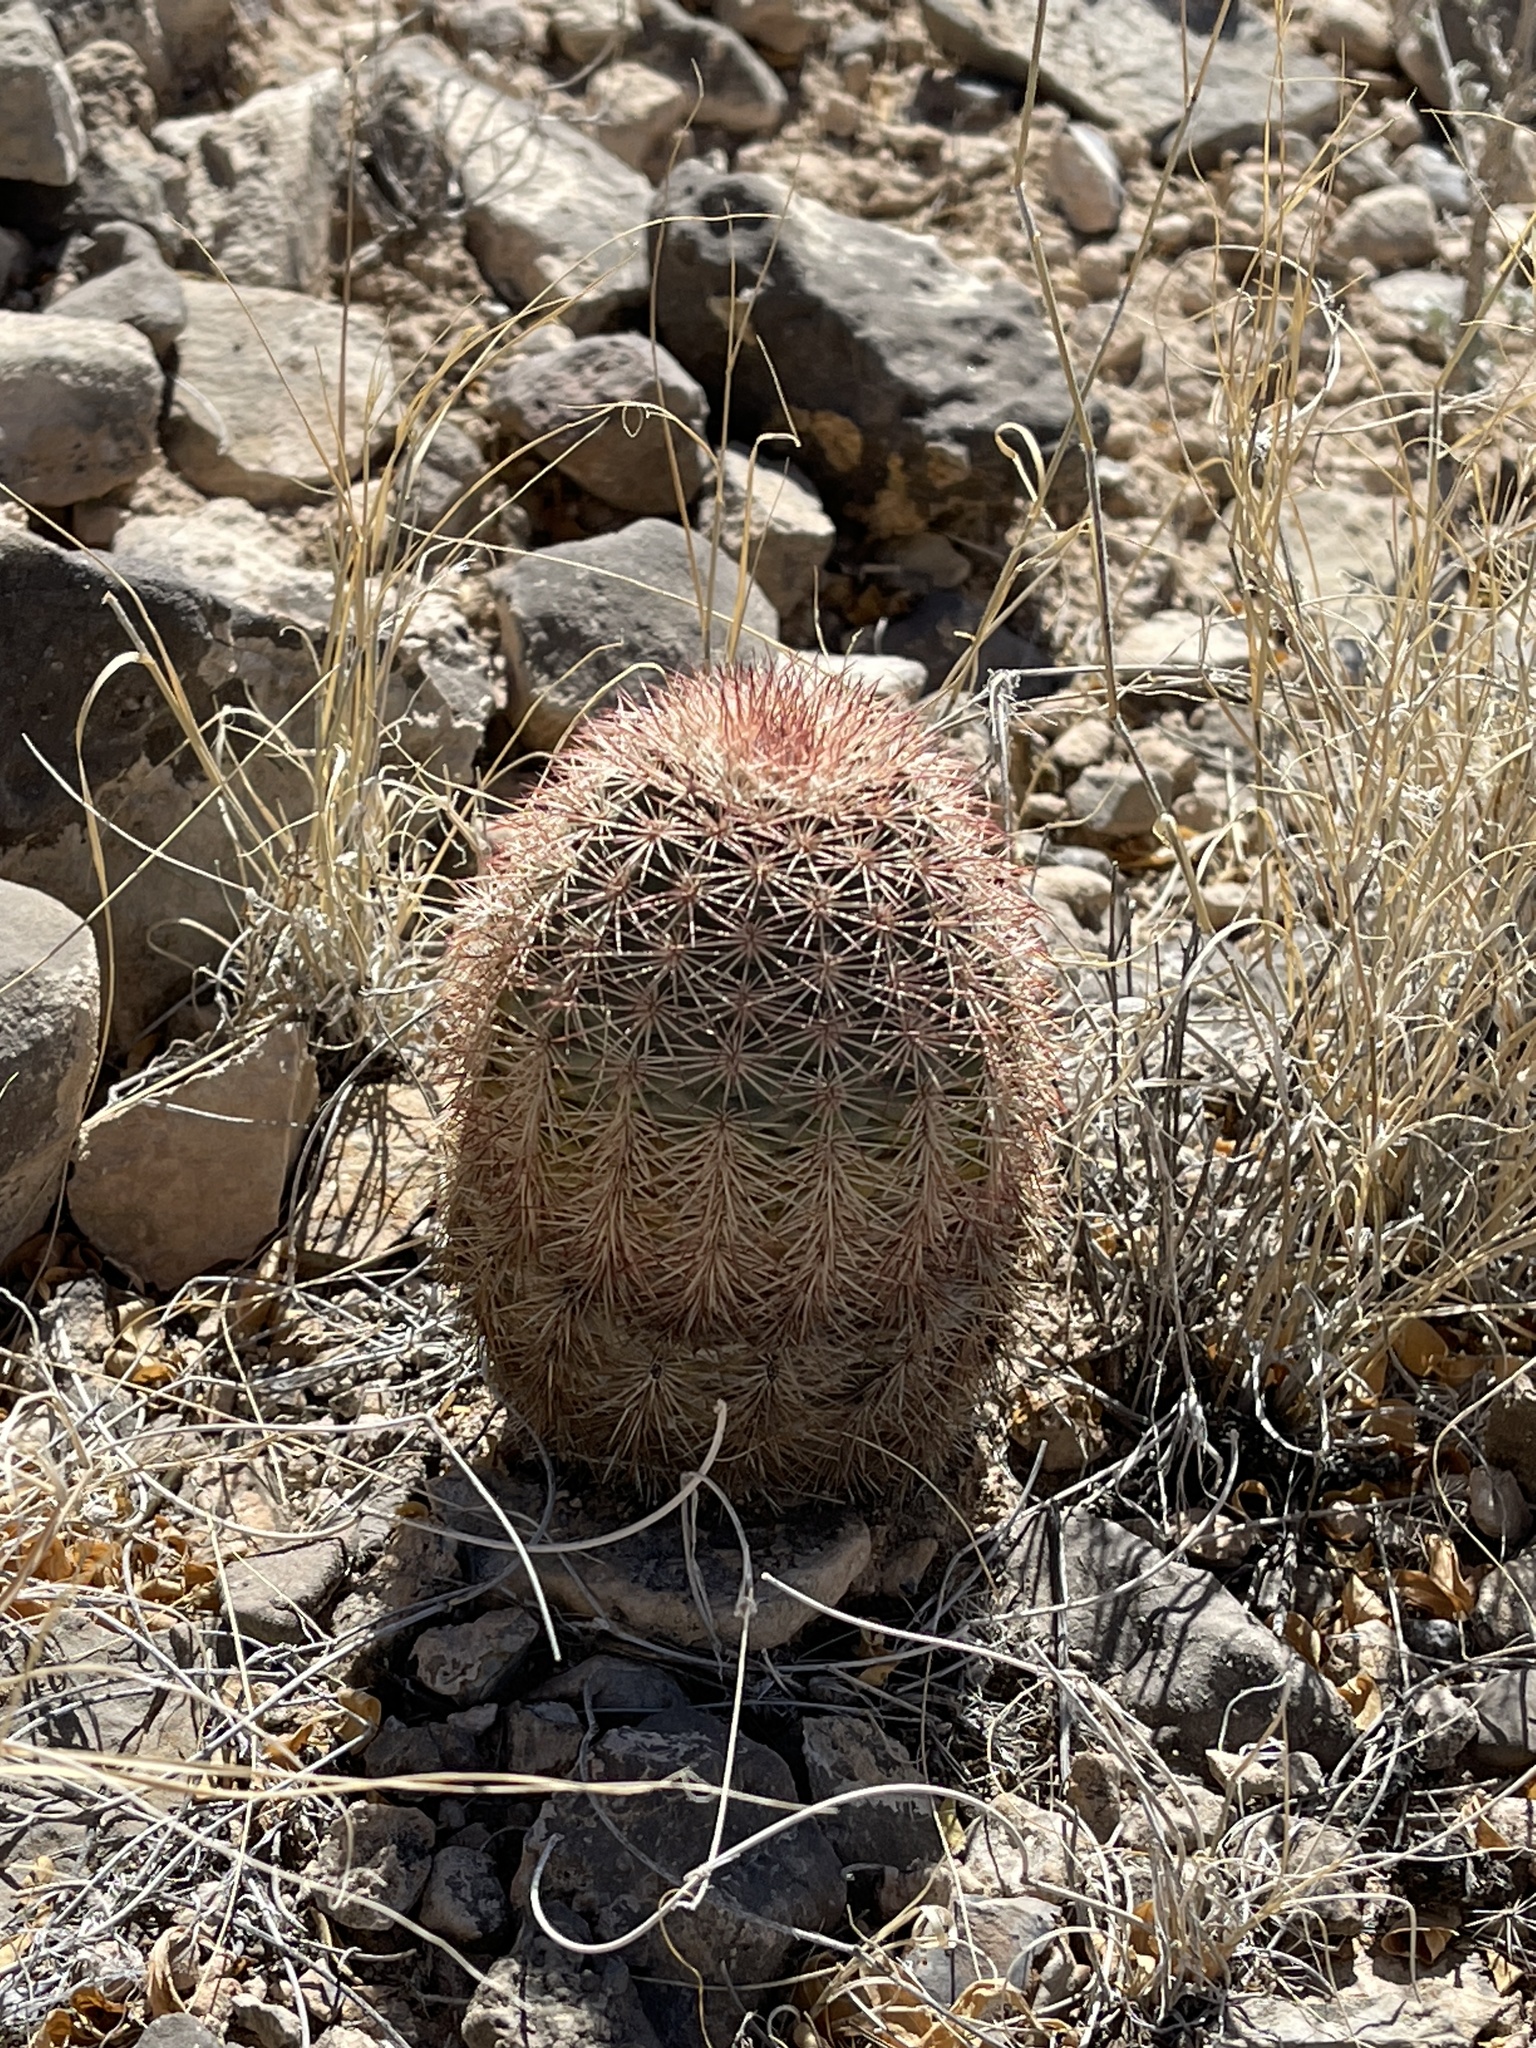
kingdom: Plantae
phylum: Tracheophyta
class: Magnoliopsida
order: Caryophyllales
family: Cactaceae
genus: Echinocereus
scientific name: Echinocereus dasyacanthus
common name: Spiny hedgehog cactus
